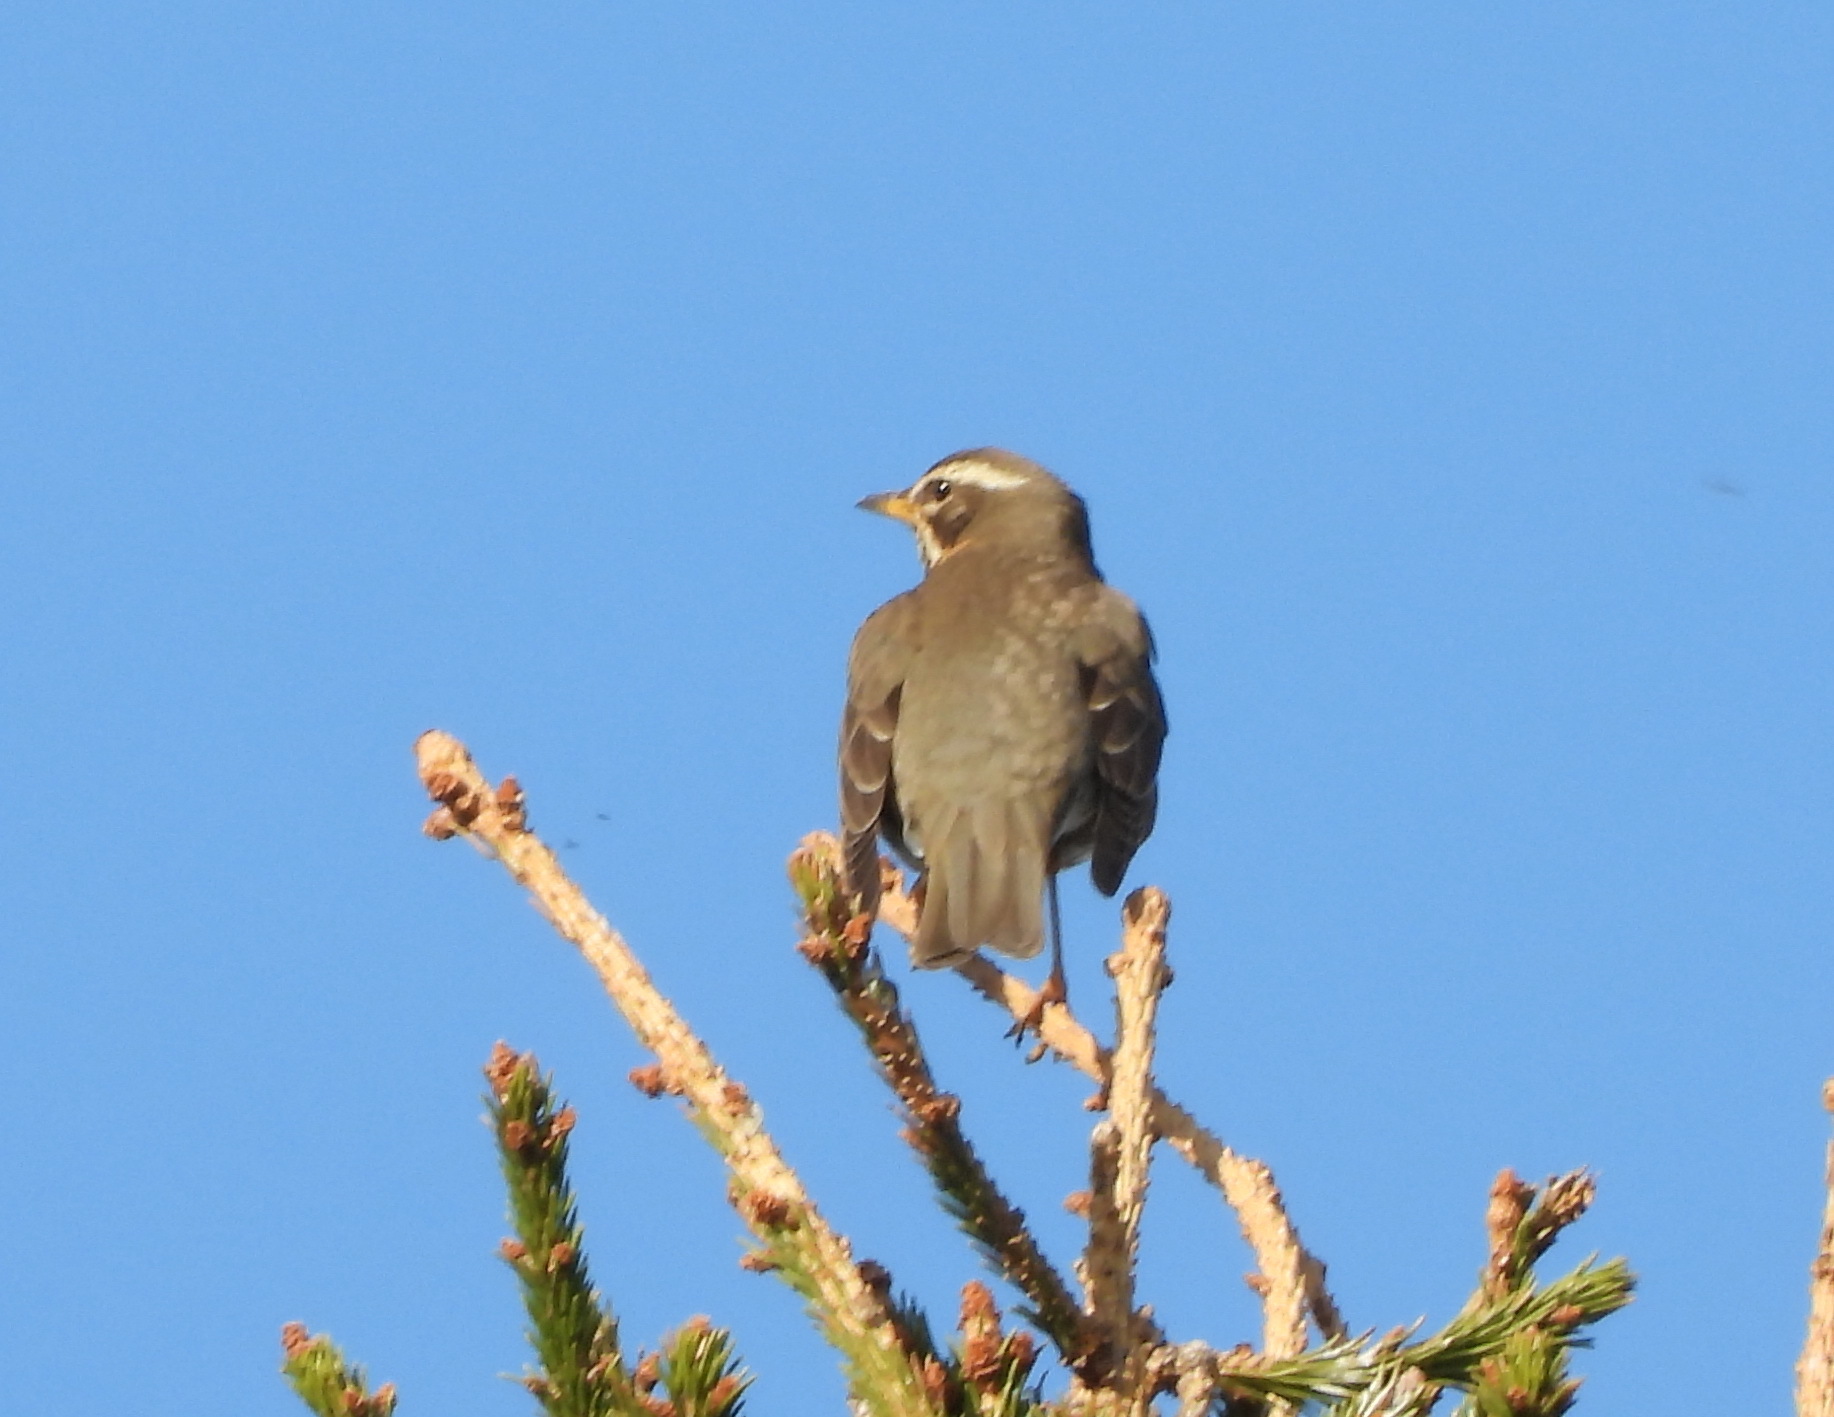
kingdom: Animalia
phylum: Chordata
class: Aves
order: Passeriformes
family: Turdidae
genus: Turdus
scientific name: Turdus iliacus
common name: Redwing
